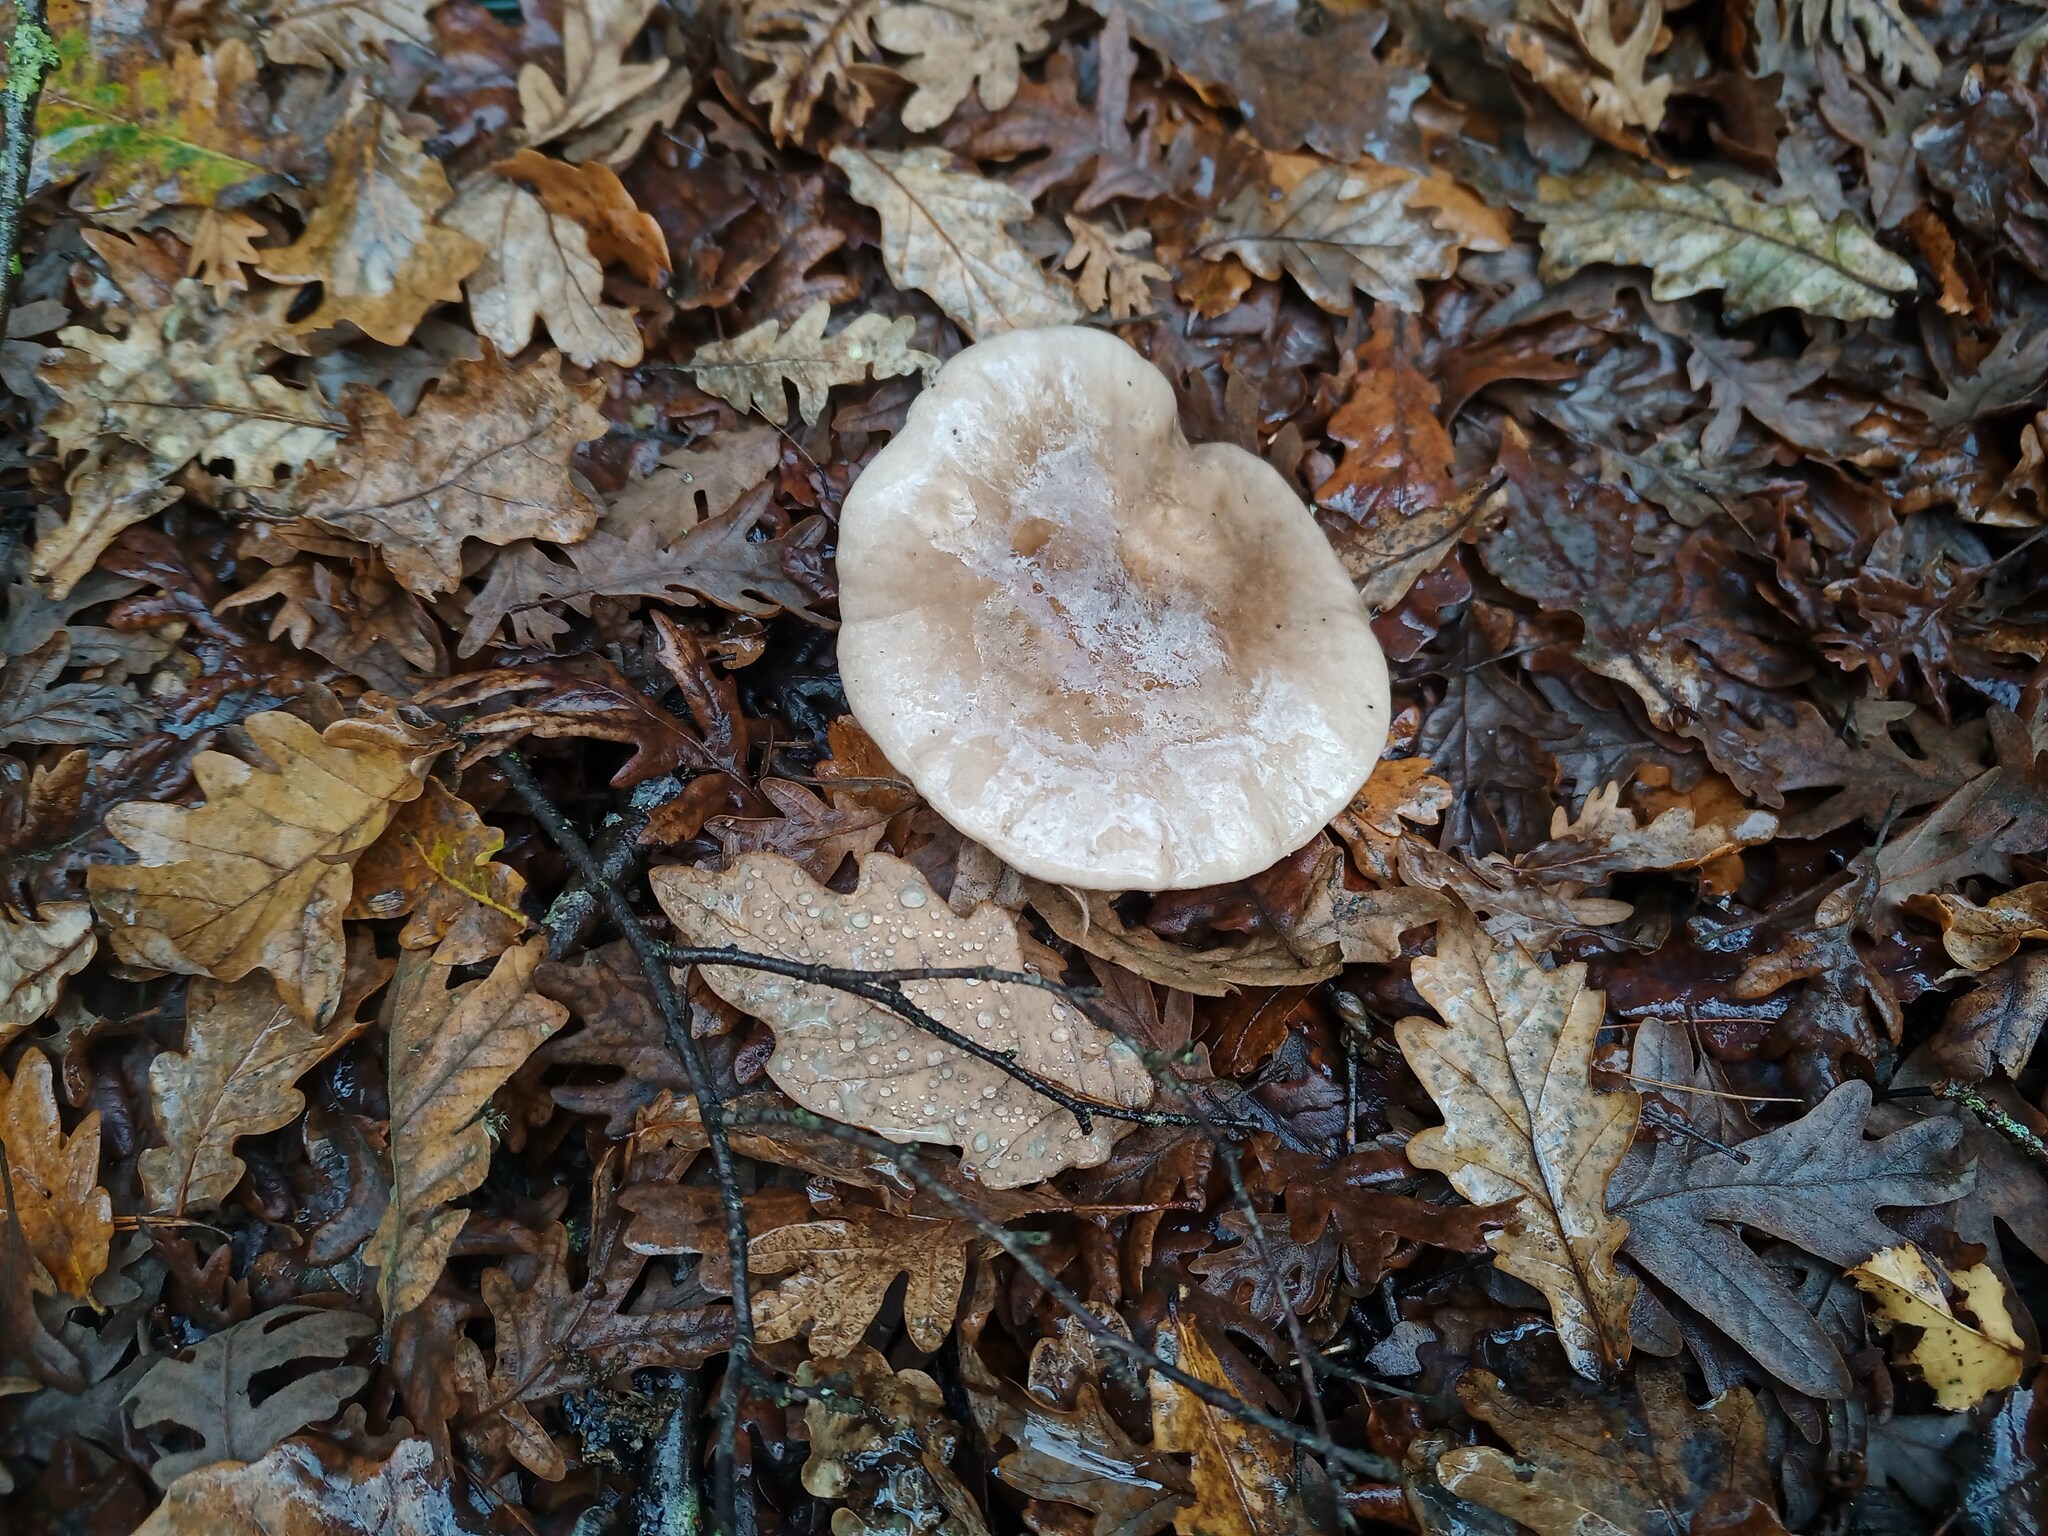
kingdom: Fungi
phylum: Basidiomycota
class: Agaricomycetes
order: Agaricales
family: Tricholomataceae
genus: Clitocybe
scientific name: Clitocybe nebularis
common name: Clouded agaric
